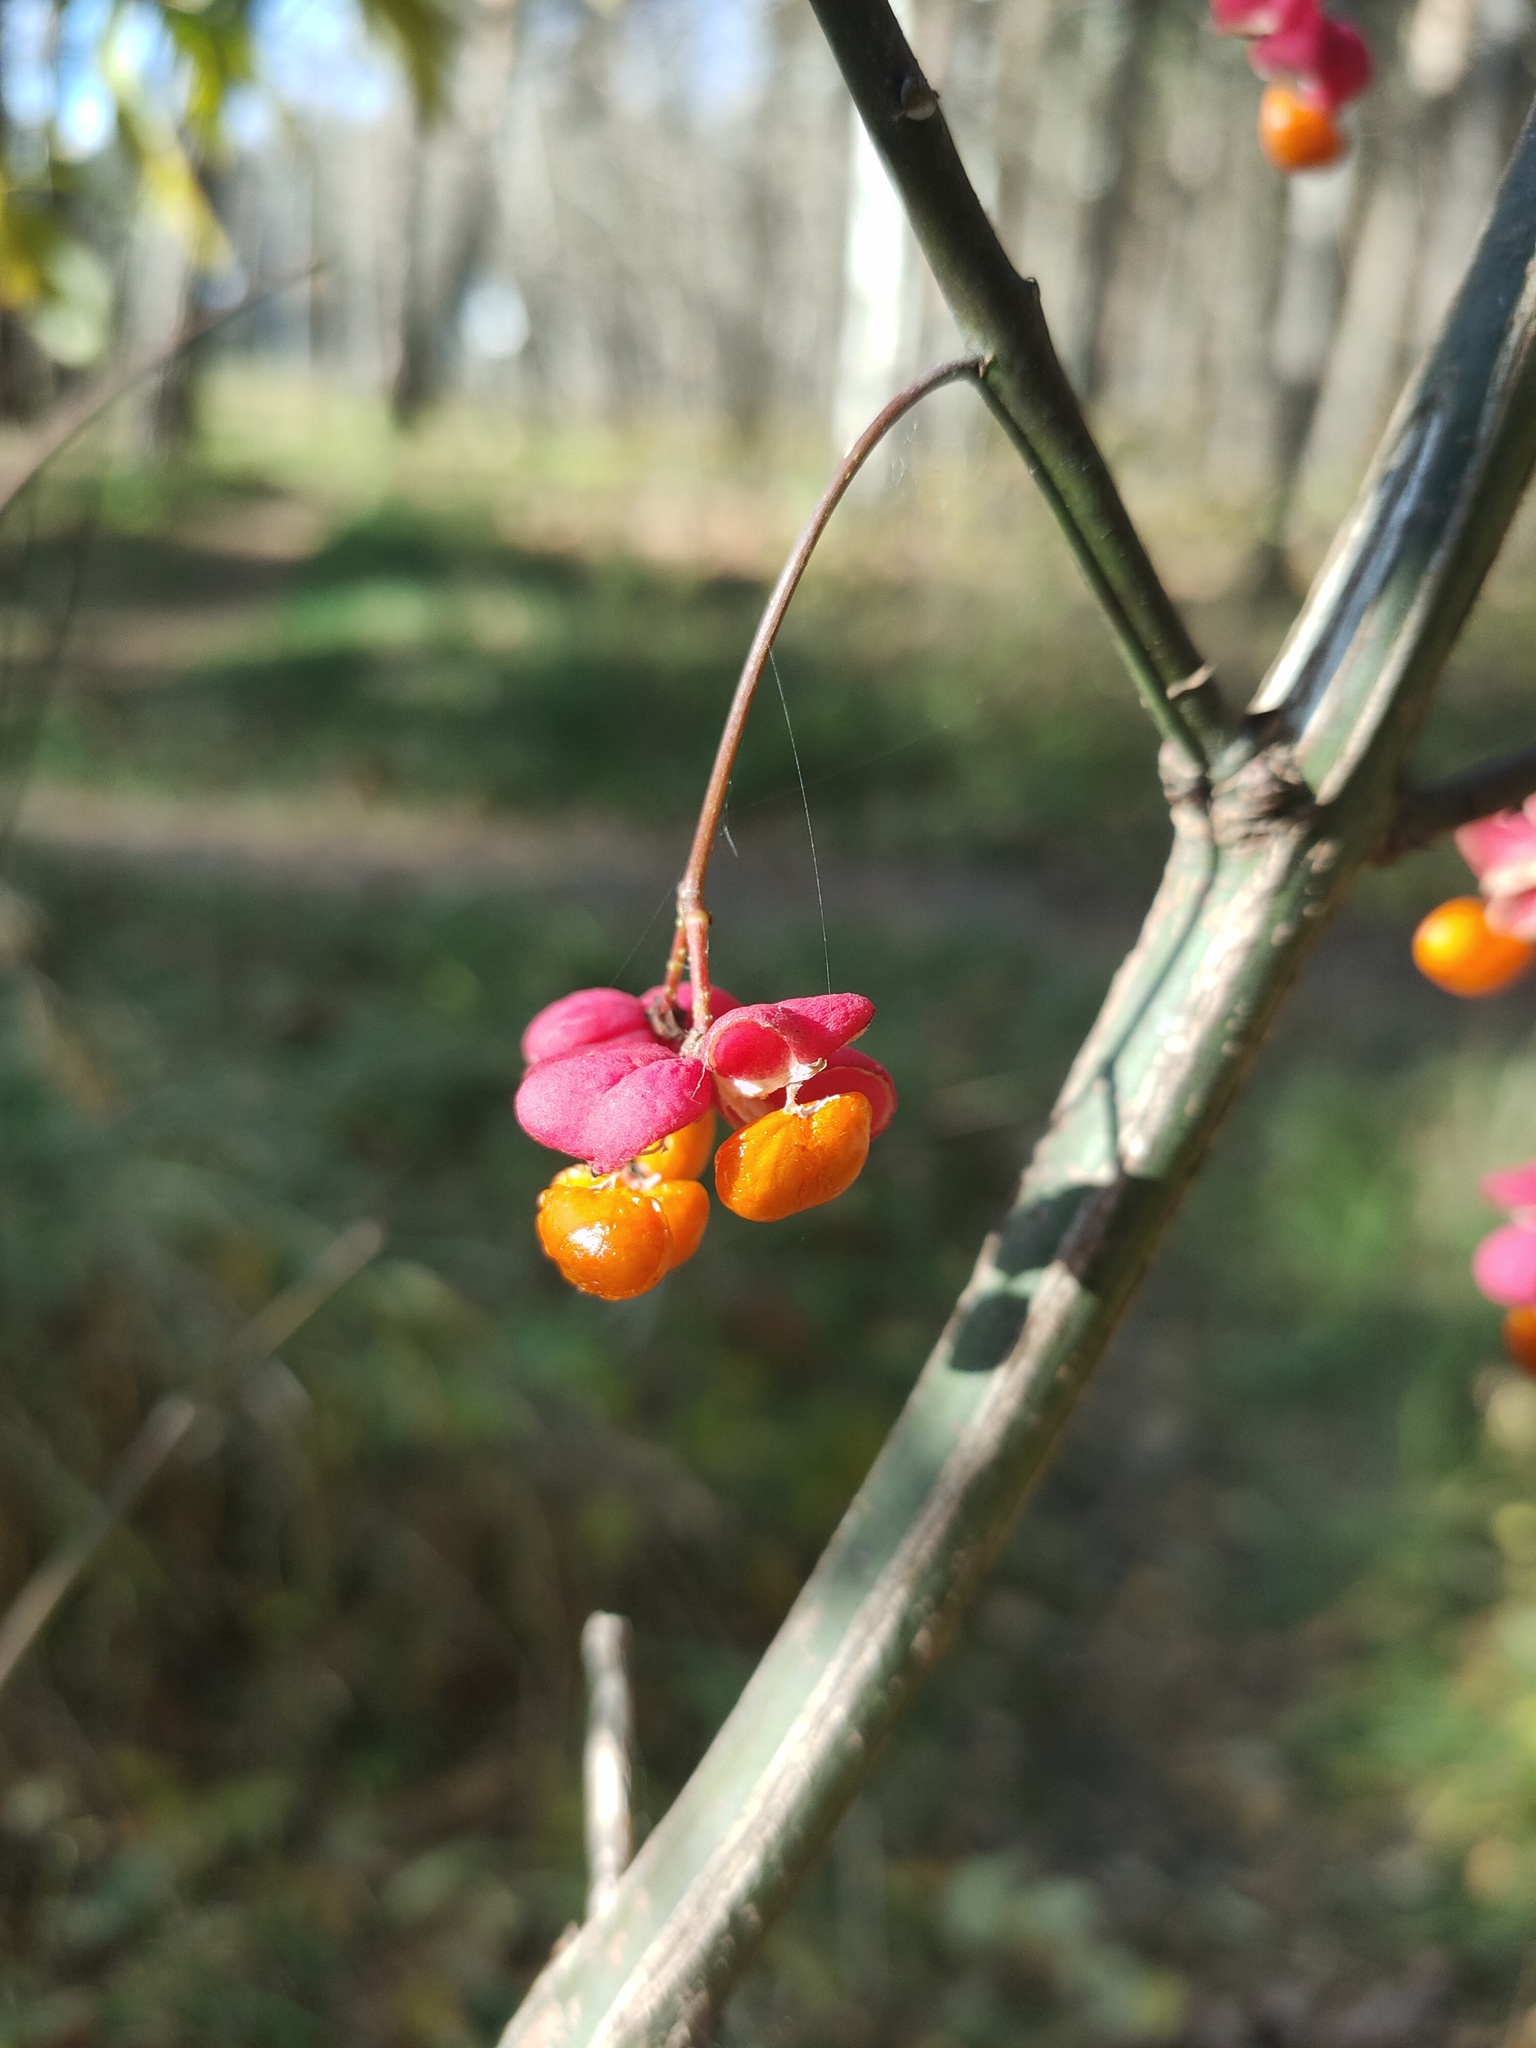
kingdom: Plantae
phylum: Tracheophyta
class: Magnoliopsida
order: Celastrales
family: Celastraceae
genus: Euonymus
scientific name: Euonymus europaeus
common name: Spindle
